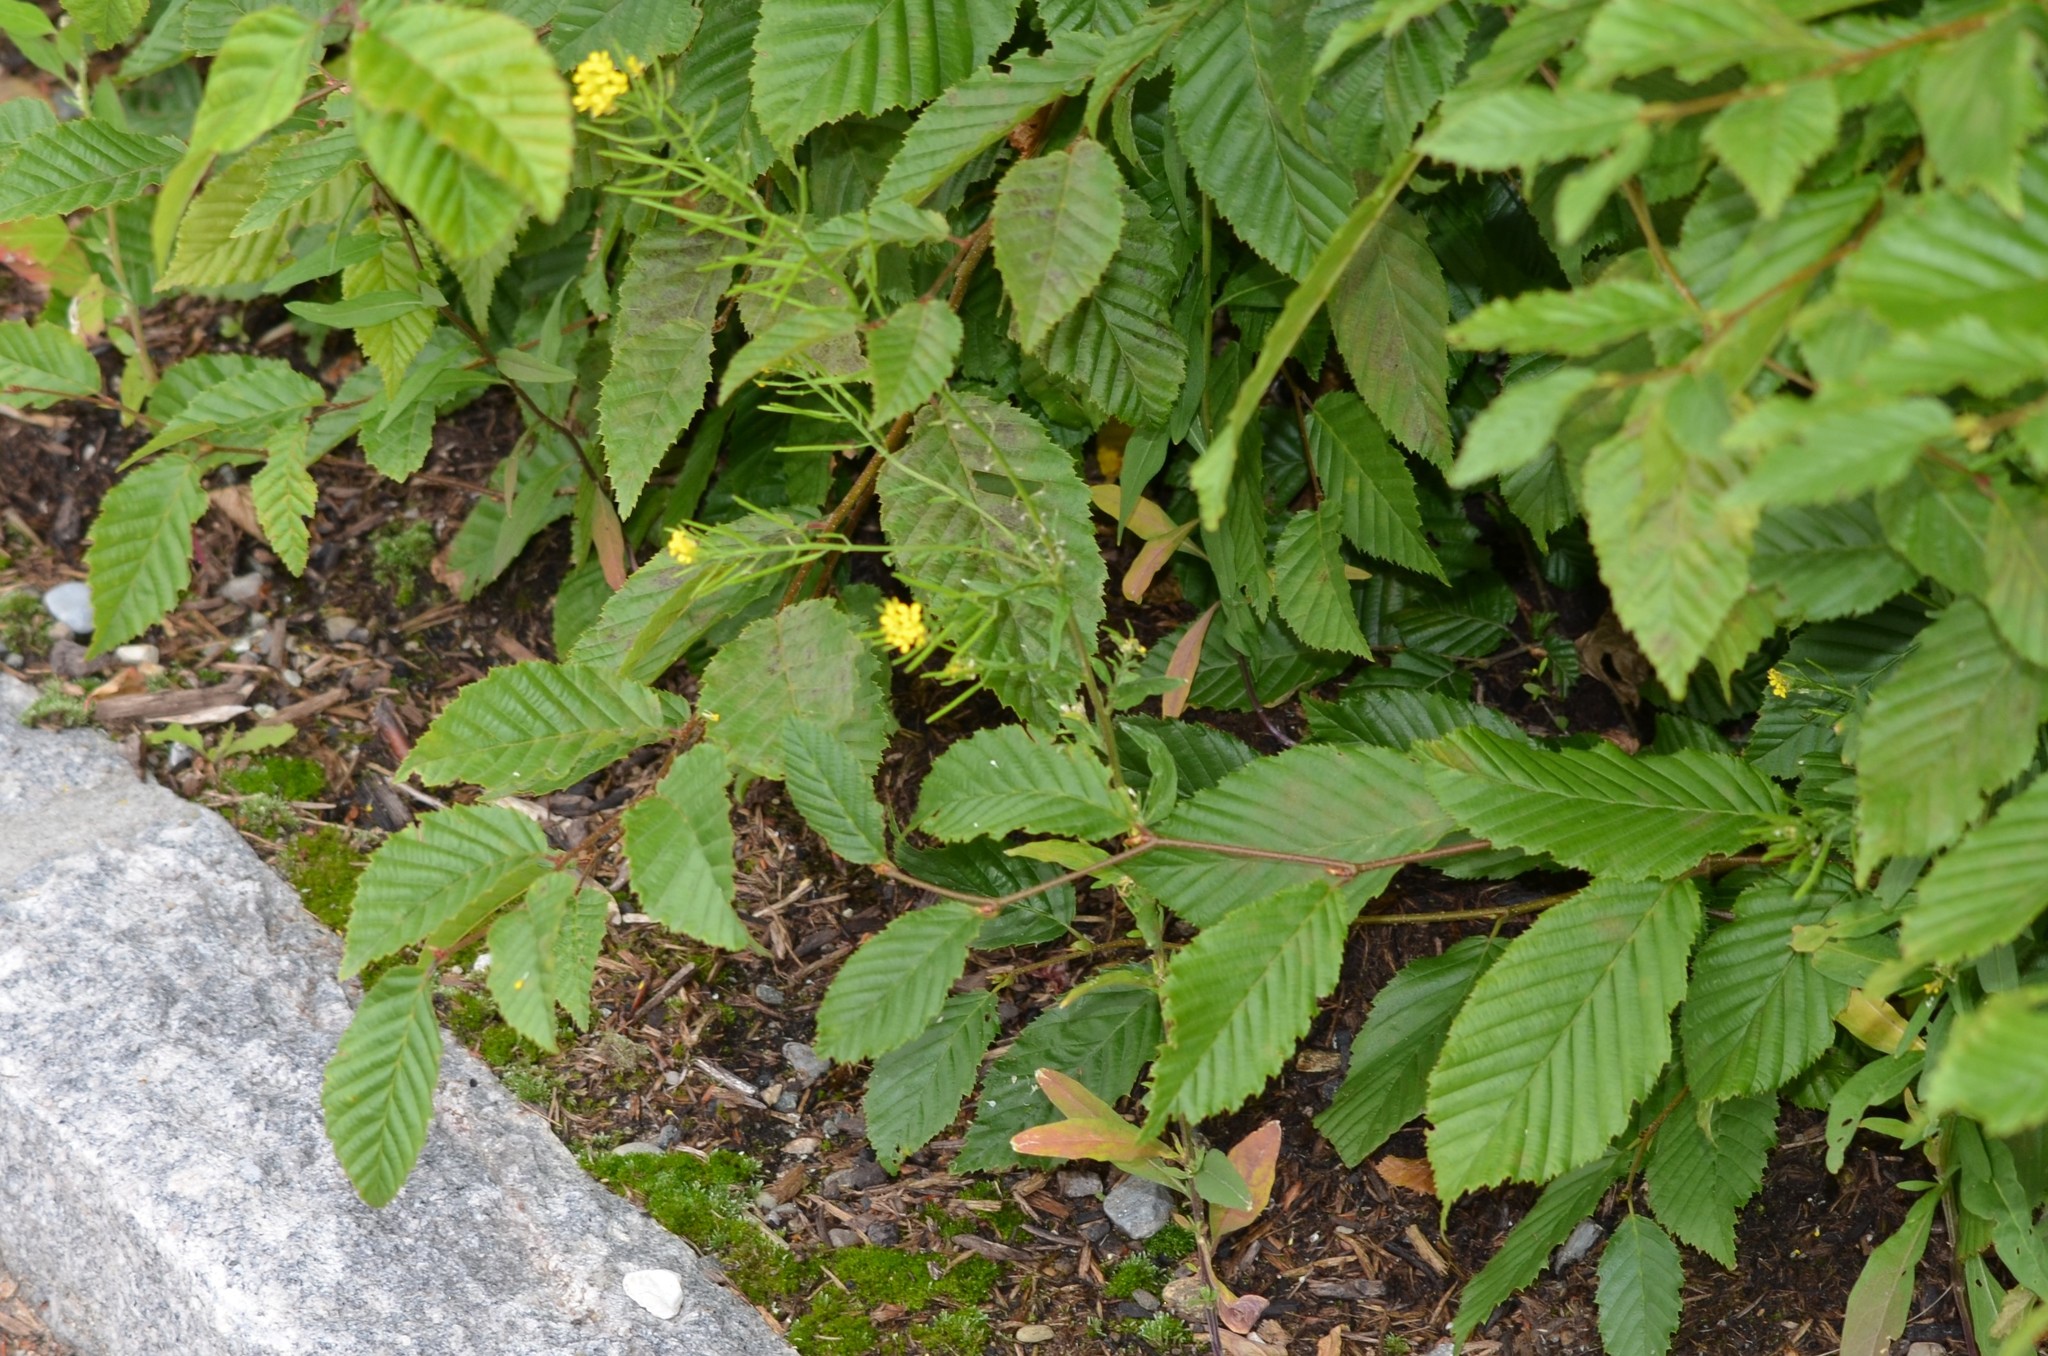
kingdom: Plantae
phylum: Tracheophyta
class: Magnoliopsida
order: Brassicales
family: Brassicaceae
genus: Erysimum
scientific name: Erysimum cheiranthoides
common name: Treacle mustard
